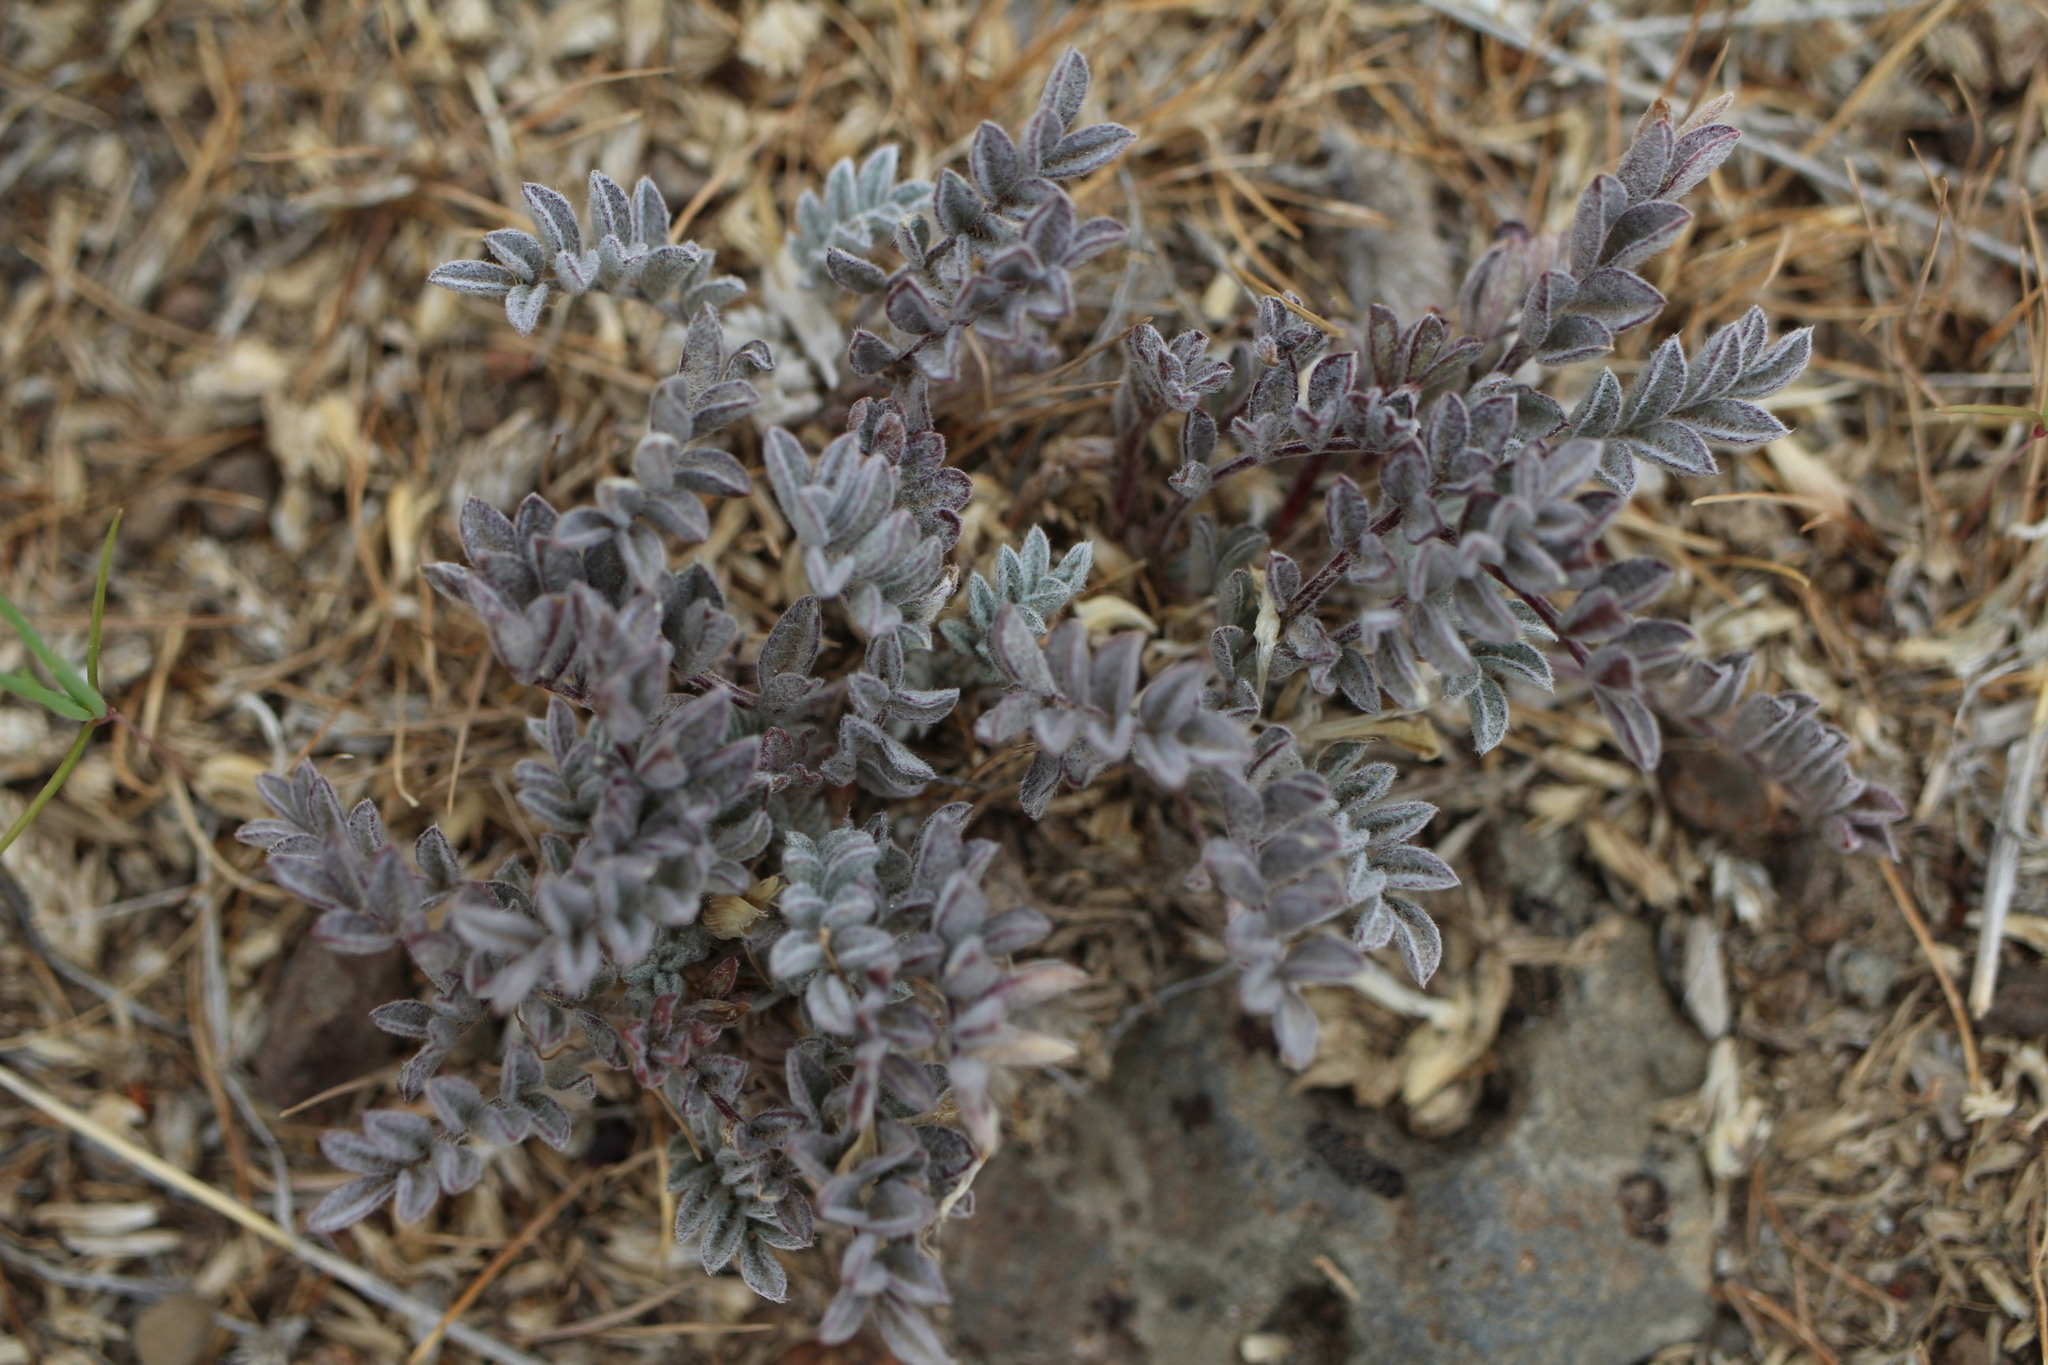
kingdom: Plantae
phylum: Tracheophyta
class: Magnoliopsida
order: Fabales
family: Fabaceae
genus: Astragalus
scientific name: Astragalus purshii
